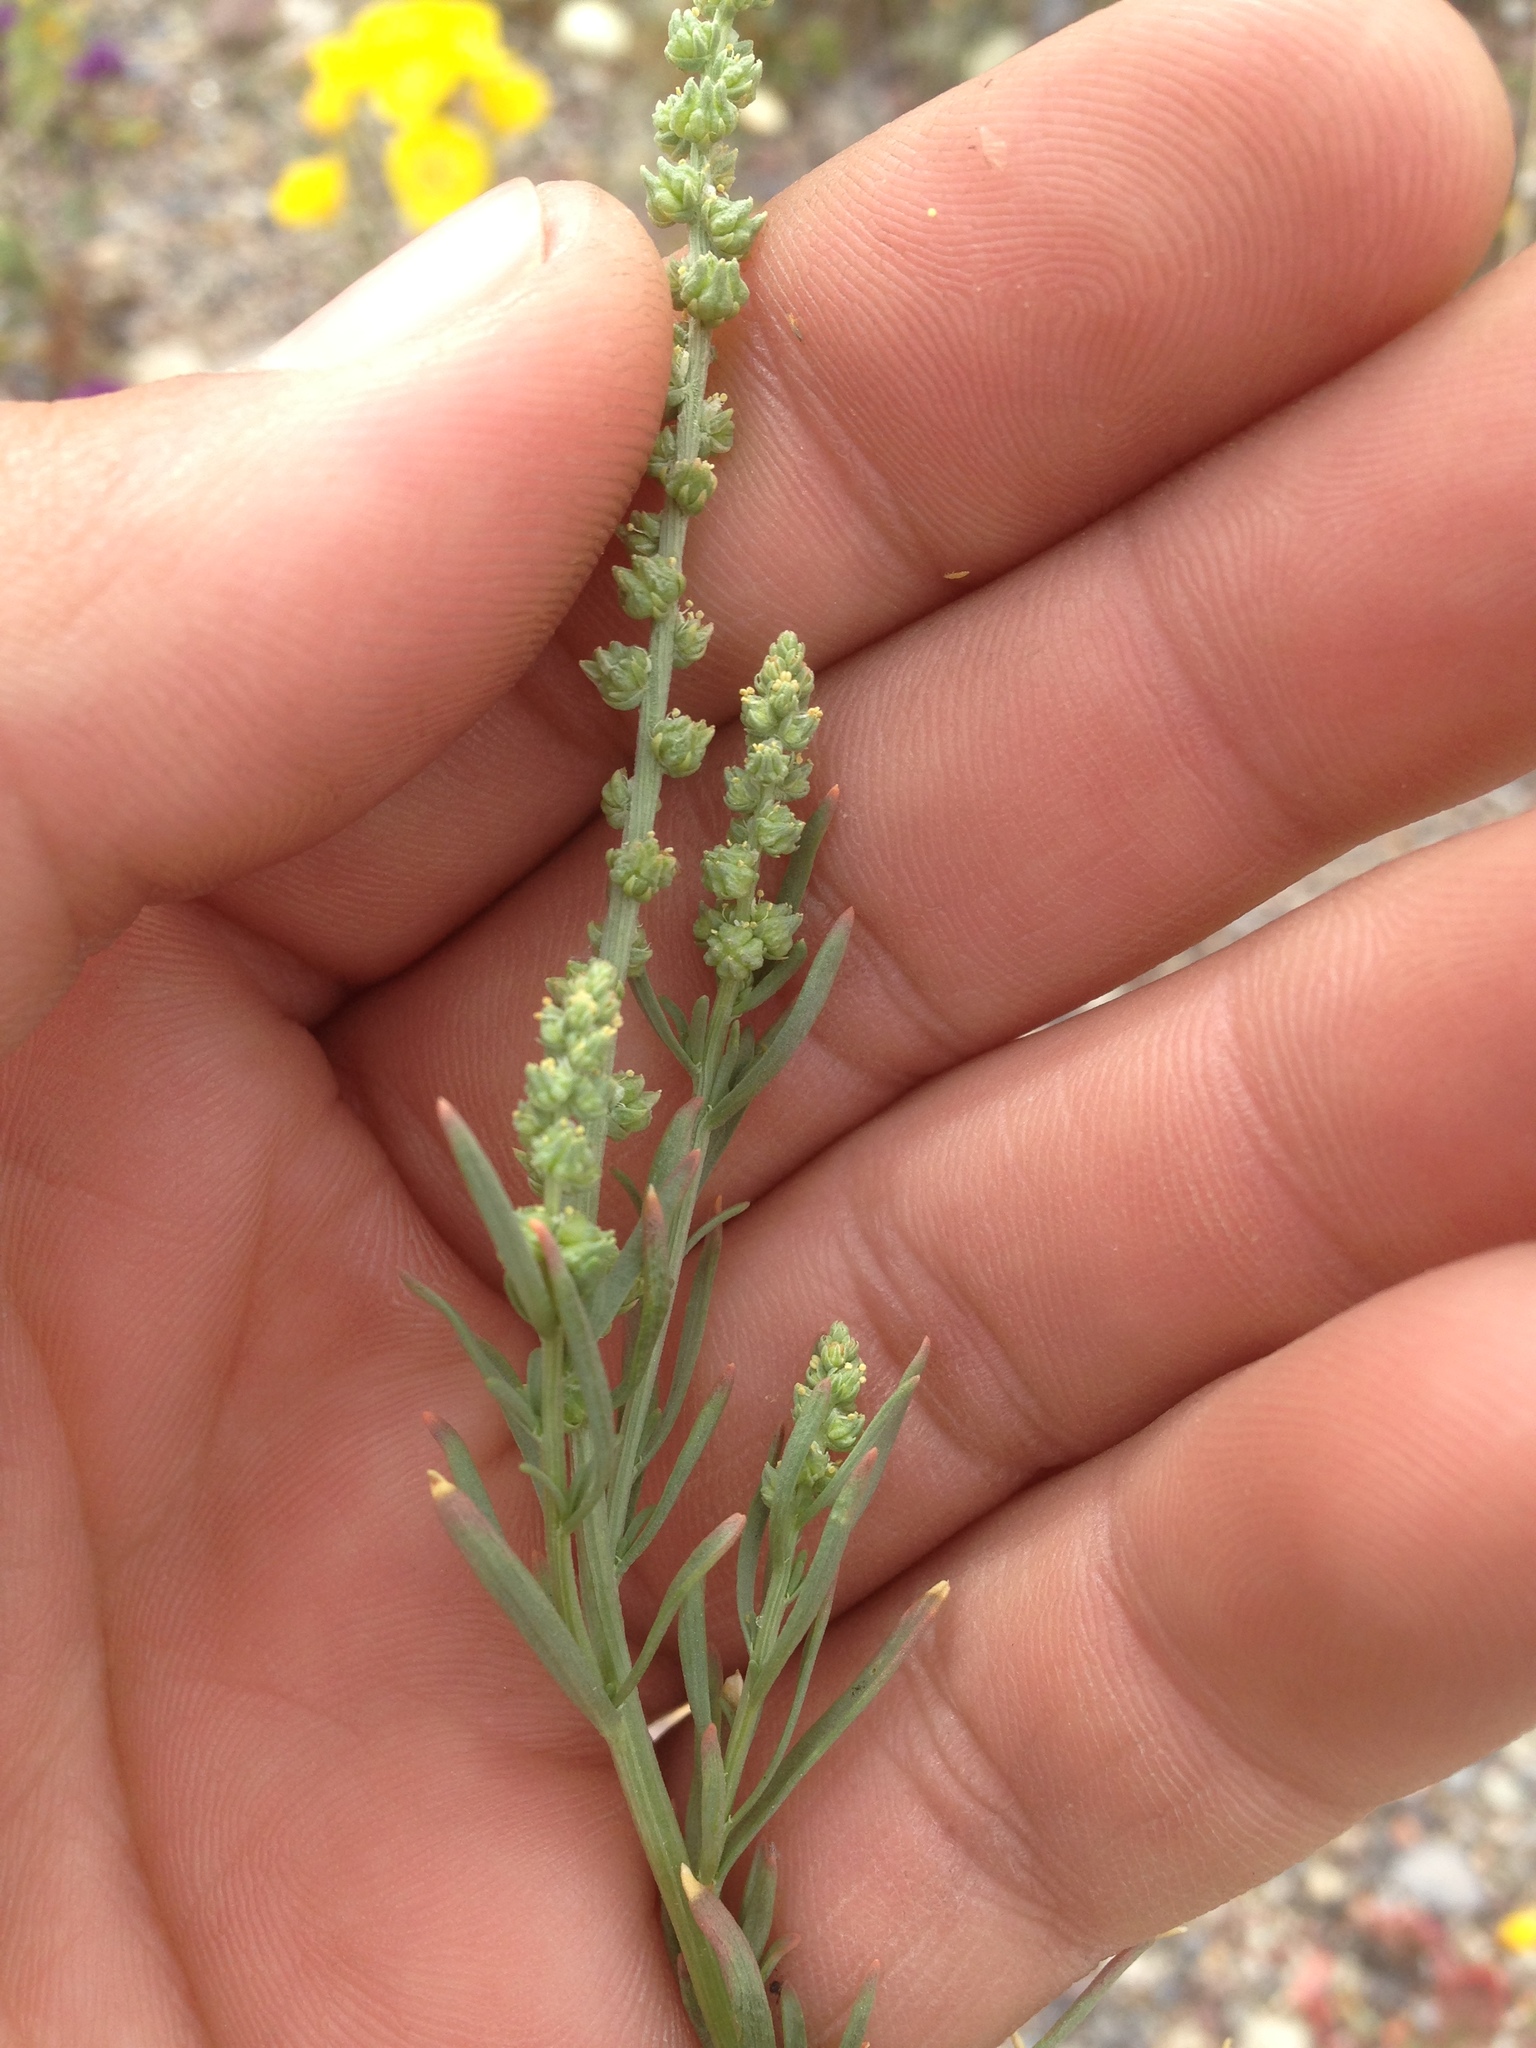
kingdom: Plantae
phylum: Tracheophyta
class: Magnoliopsida
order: Brassicales
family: Resedaceae
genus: Oligomeris
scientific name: Oligomeris linifolia
